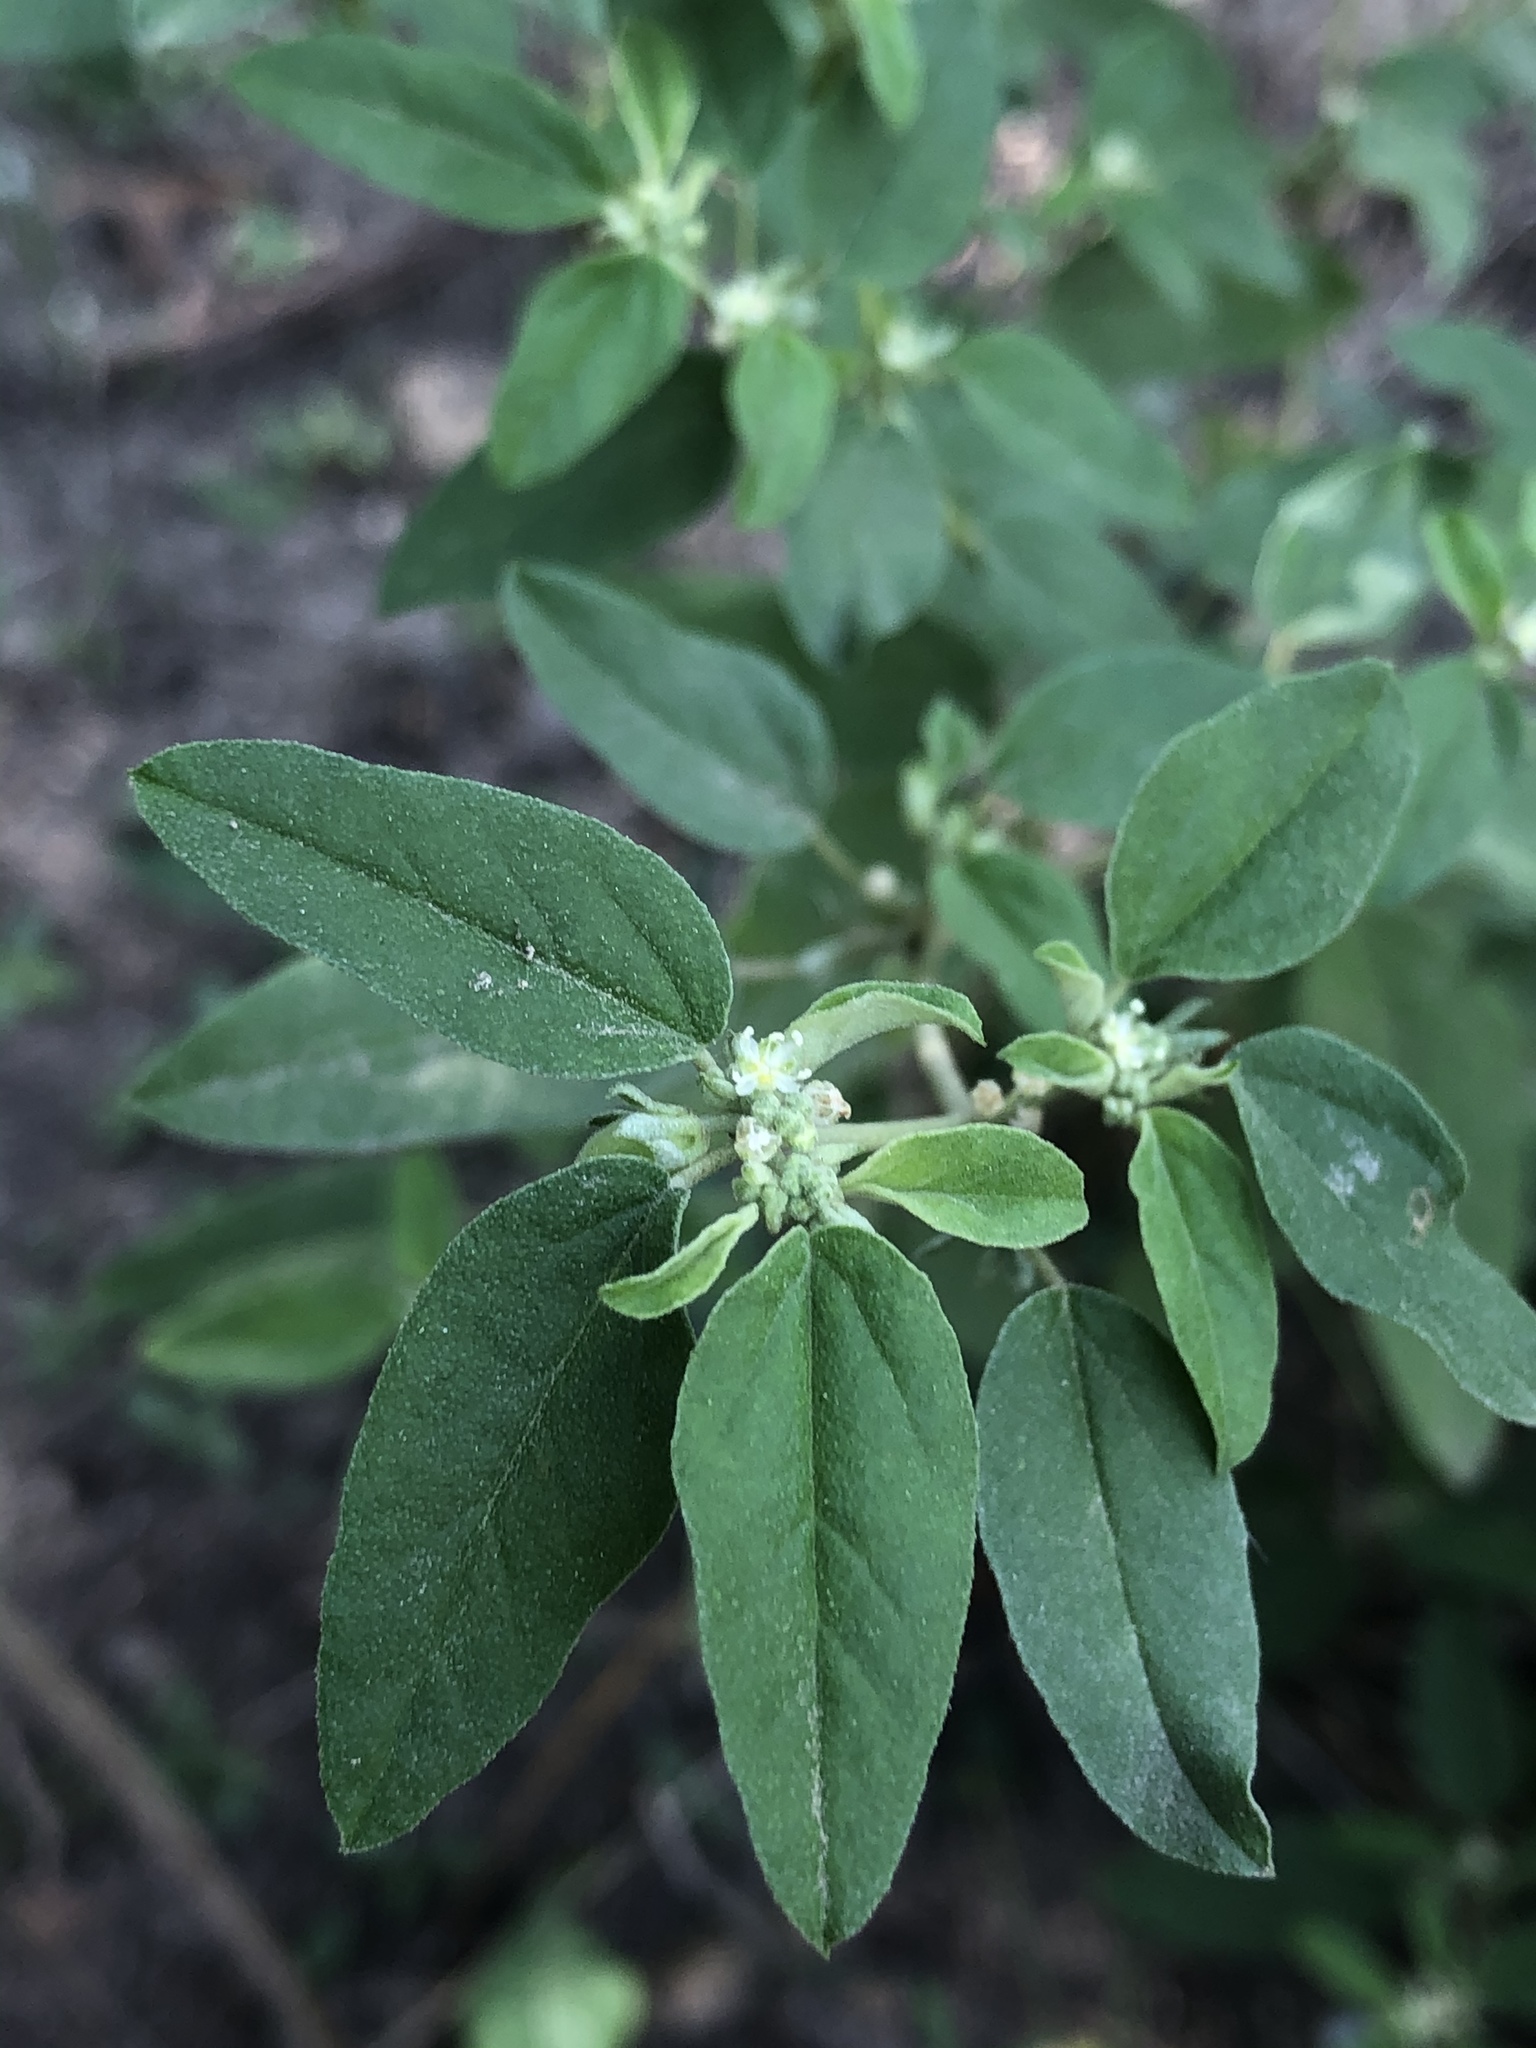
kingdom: Plantae
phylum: Tracheophyta
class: Magnoliopsida
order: Malpighiales
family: Euphorbiaceae
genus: Croton
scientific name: Croton monanthogynus
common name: One-seed croton
